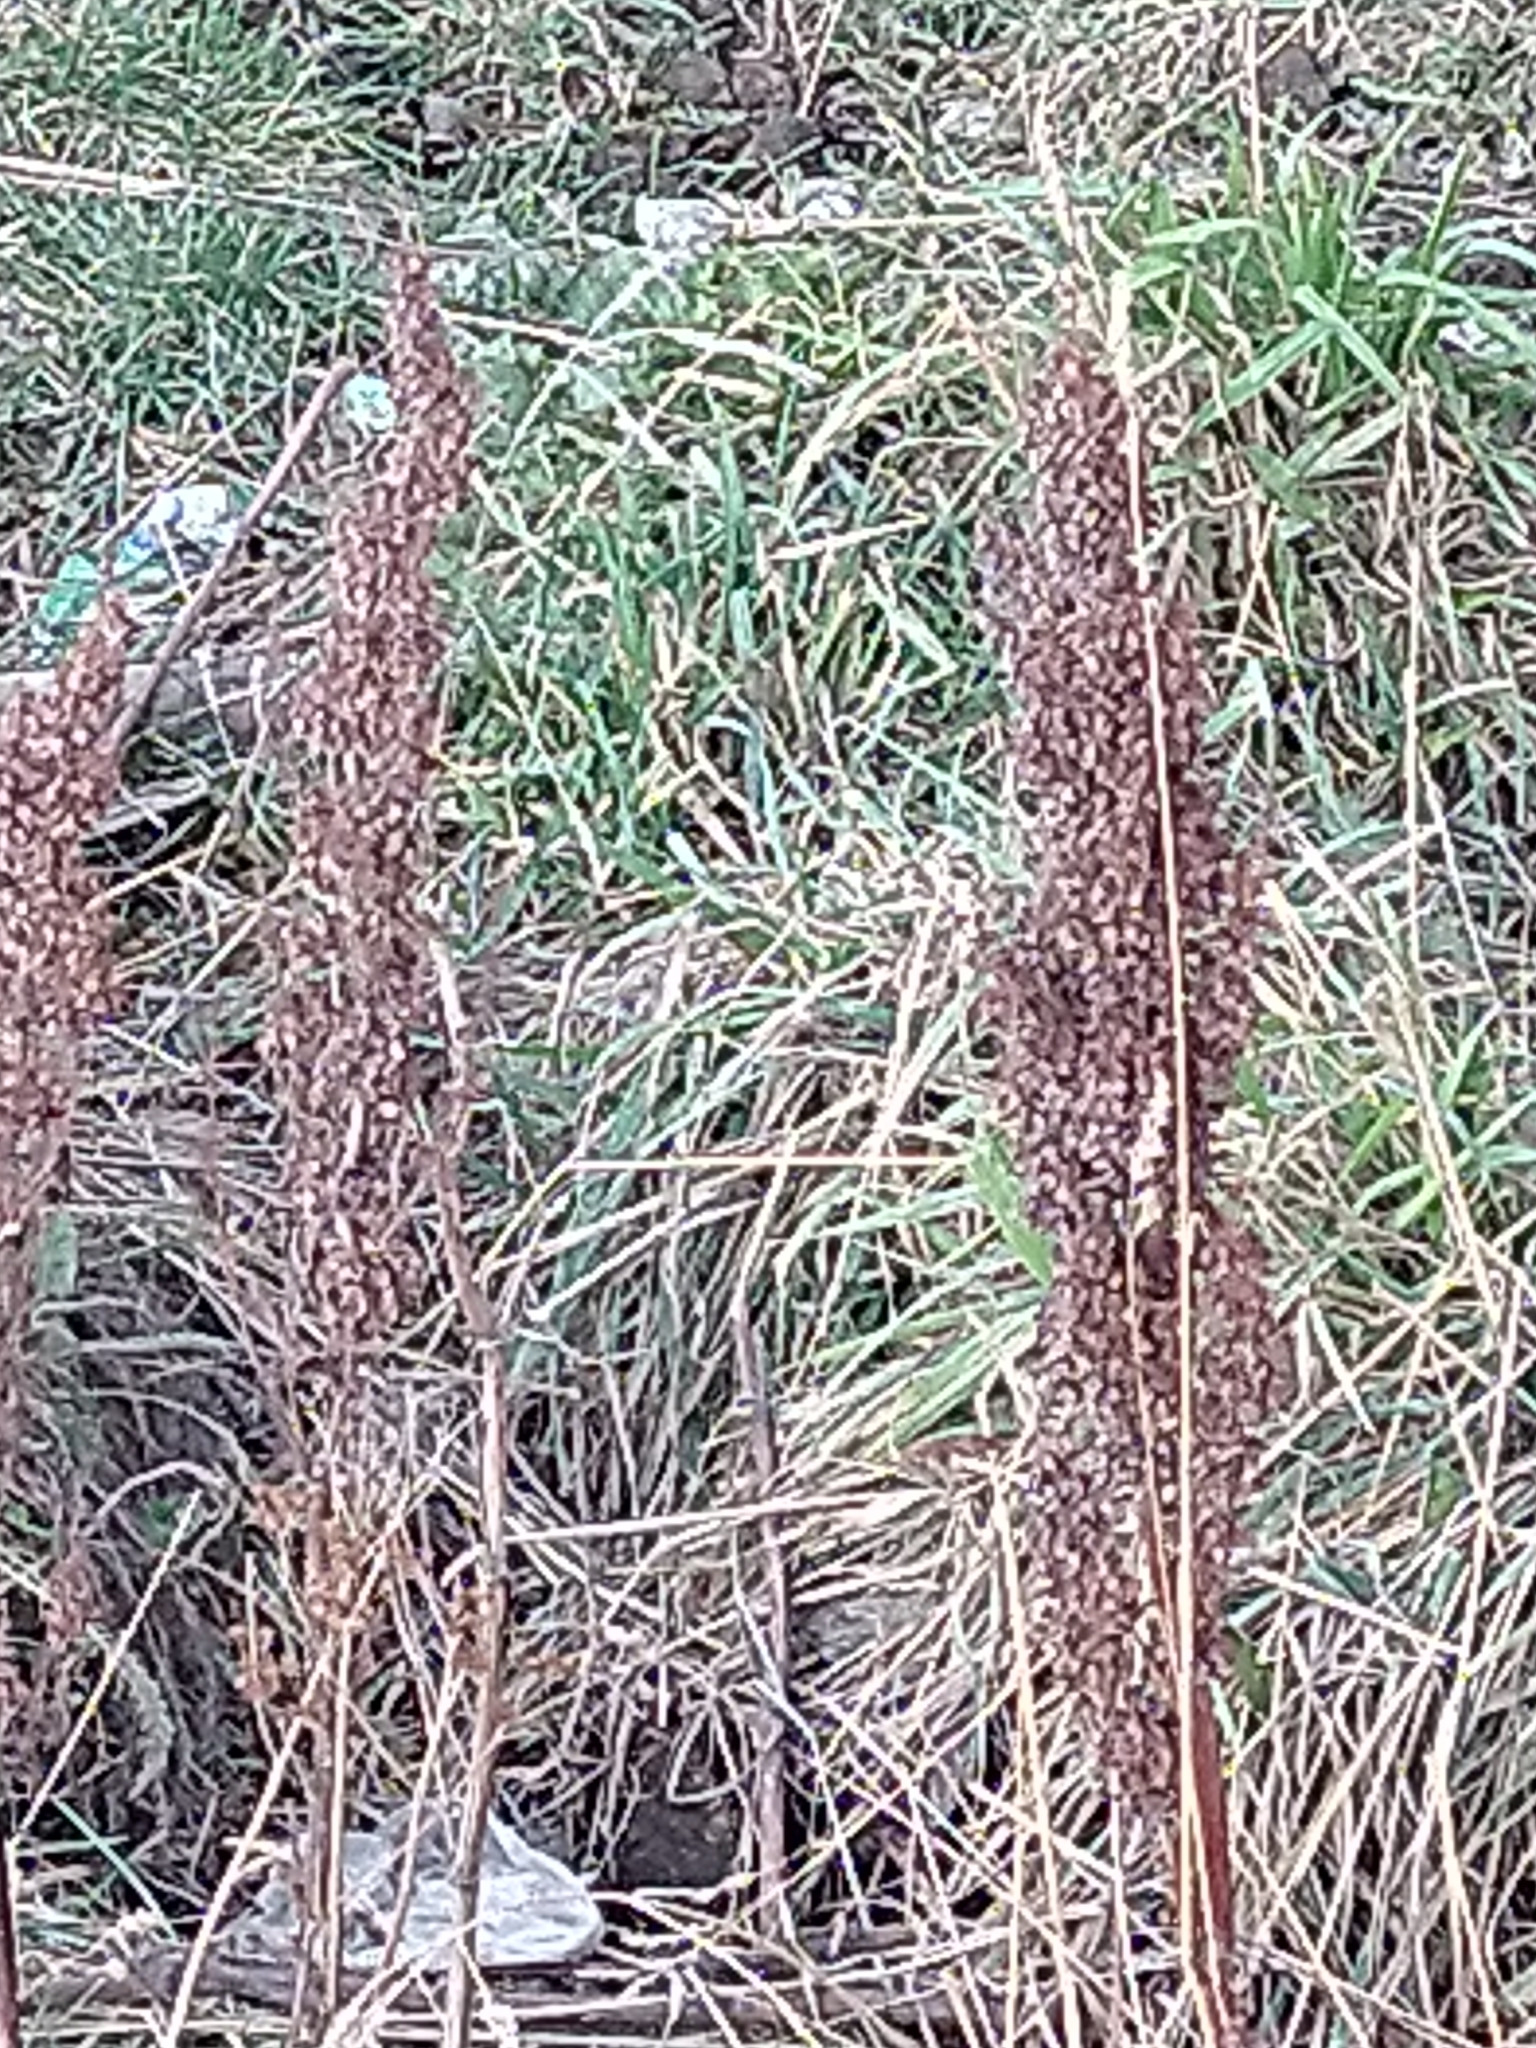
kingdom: Plantae
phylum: Tracheophyta
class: Magnoliopsida
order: Caryophyllales
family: Polygonaceae
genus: Rumex
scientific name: Rumex crispus
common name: Curled dock
